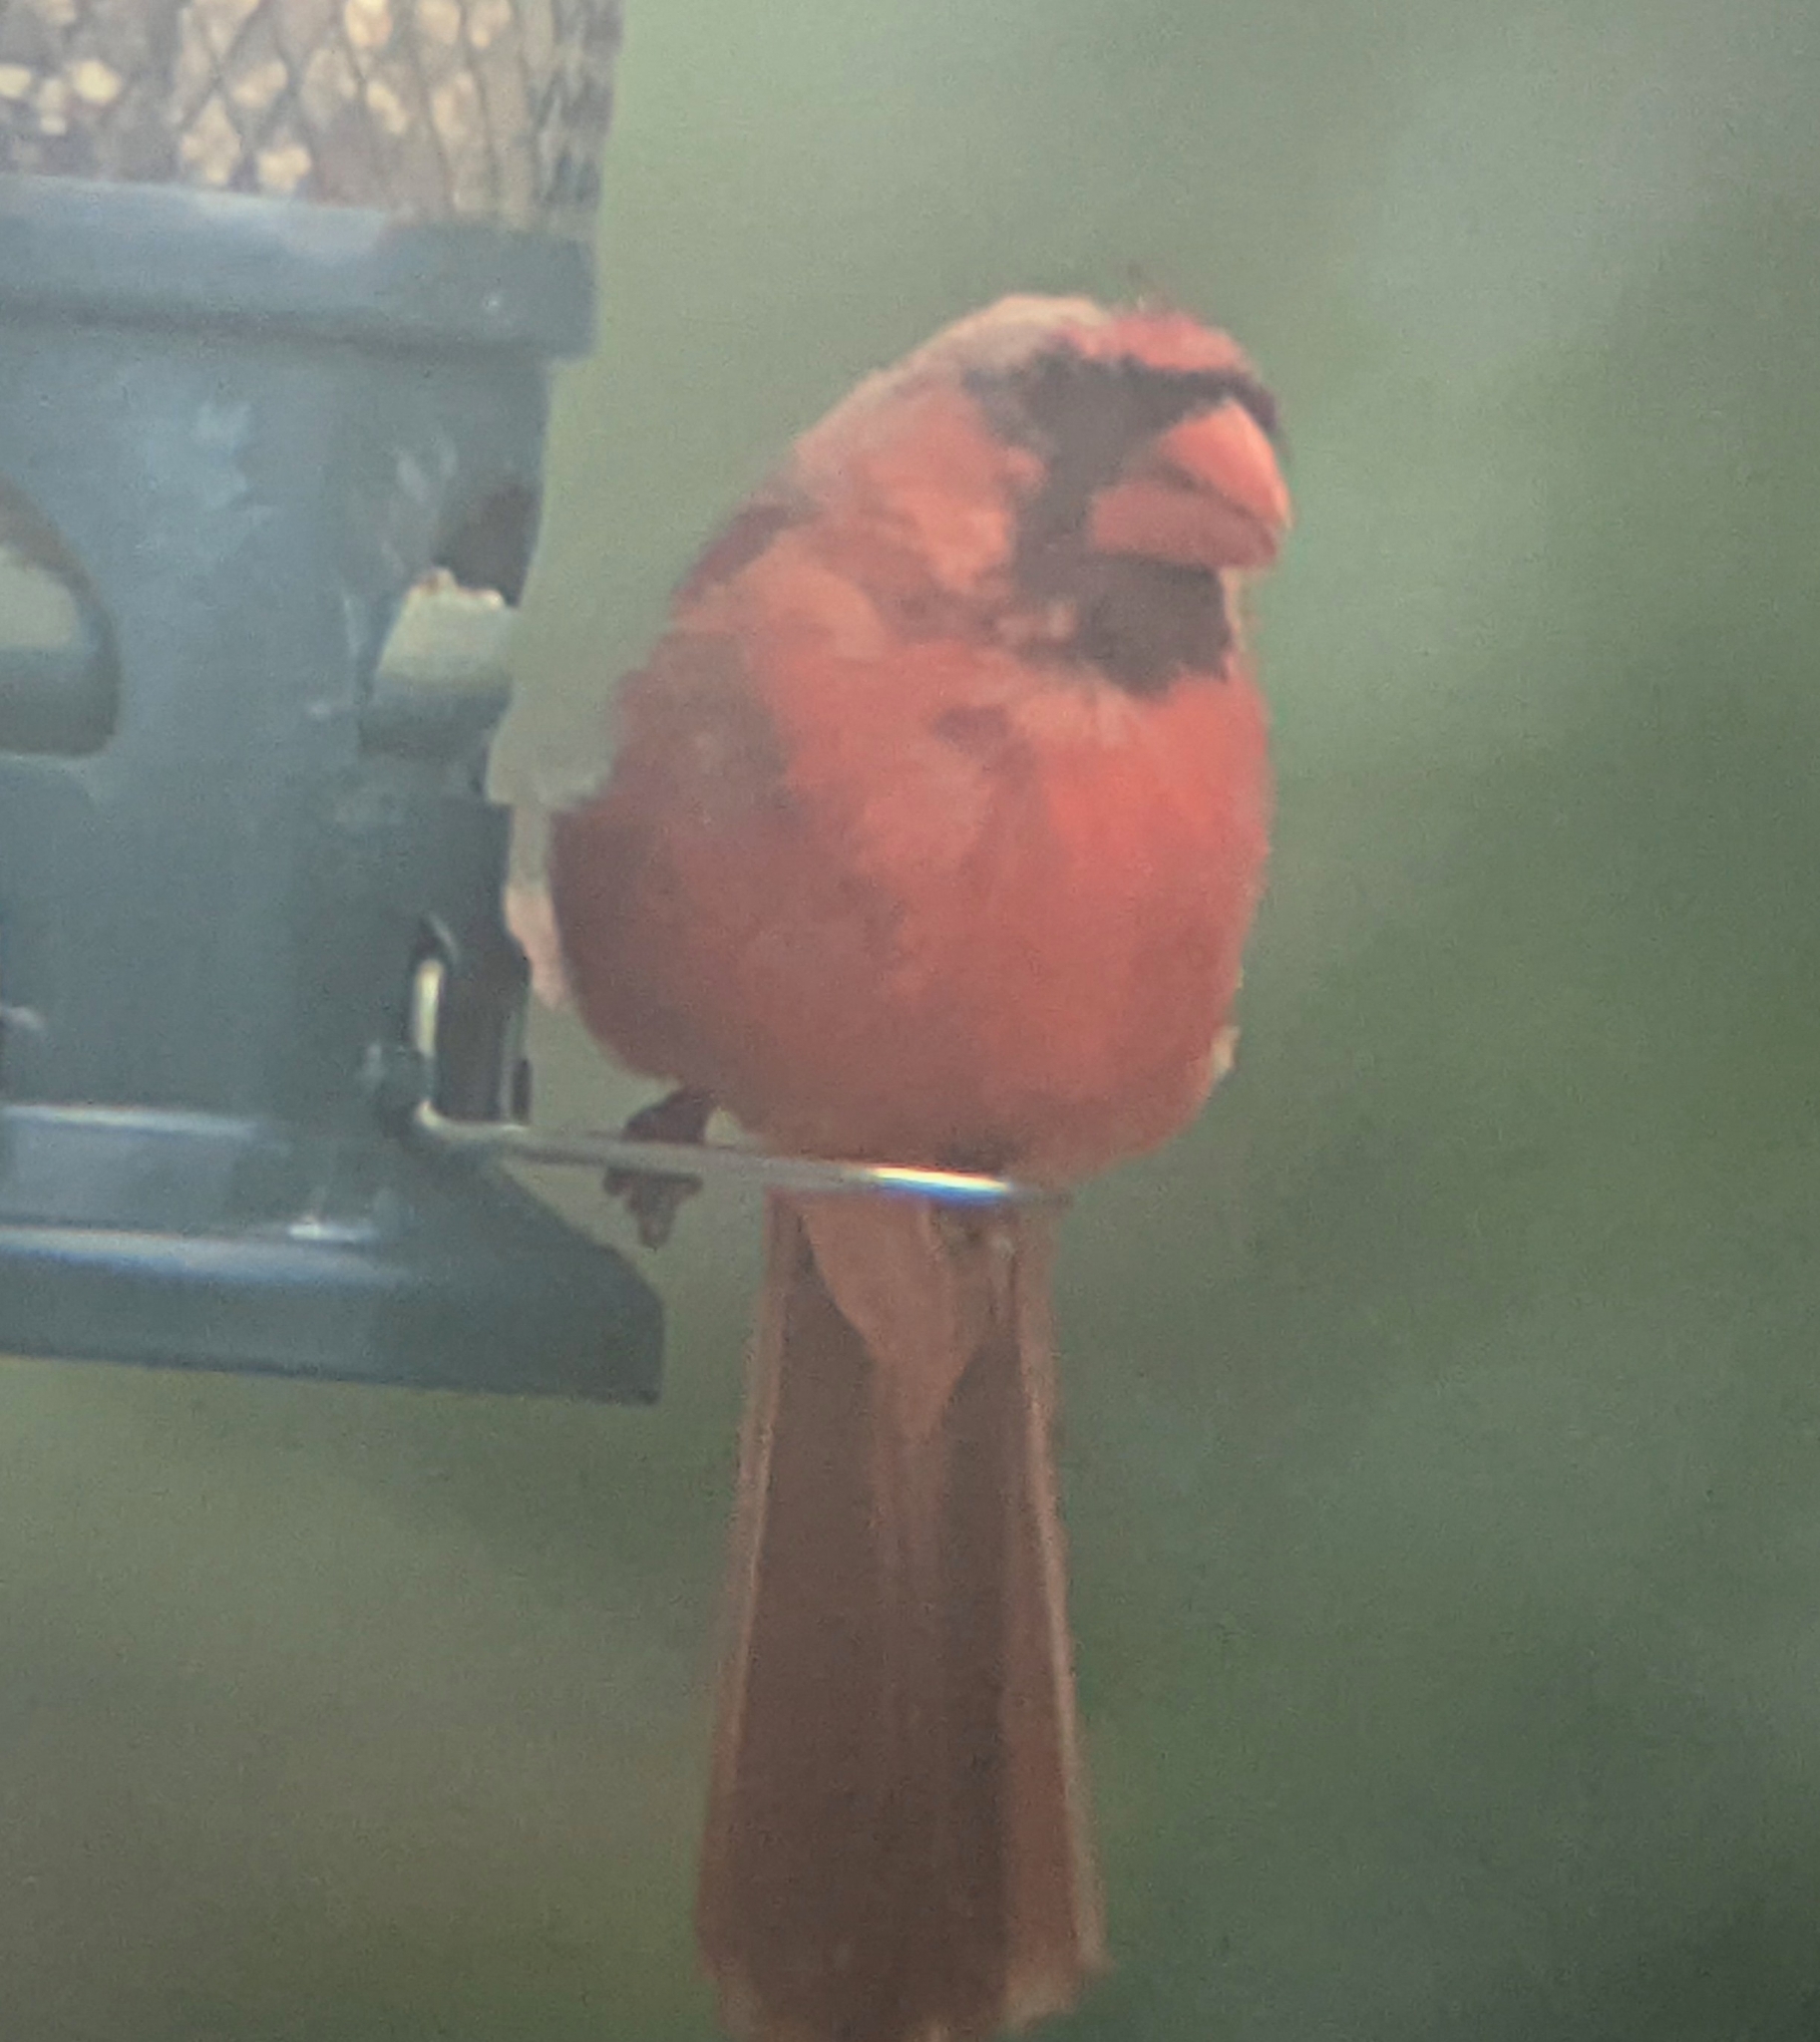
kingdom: Animalia
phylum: Chordata
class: Aves
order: Passeriformes
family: Cardinalidae
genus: Cardinalis
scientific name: Cardinalis cardinalis
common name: Northern cardinal
